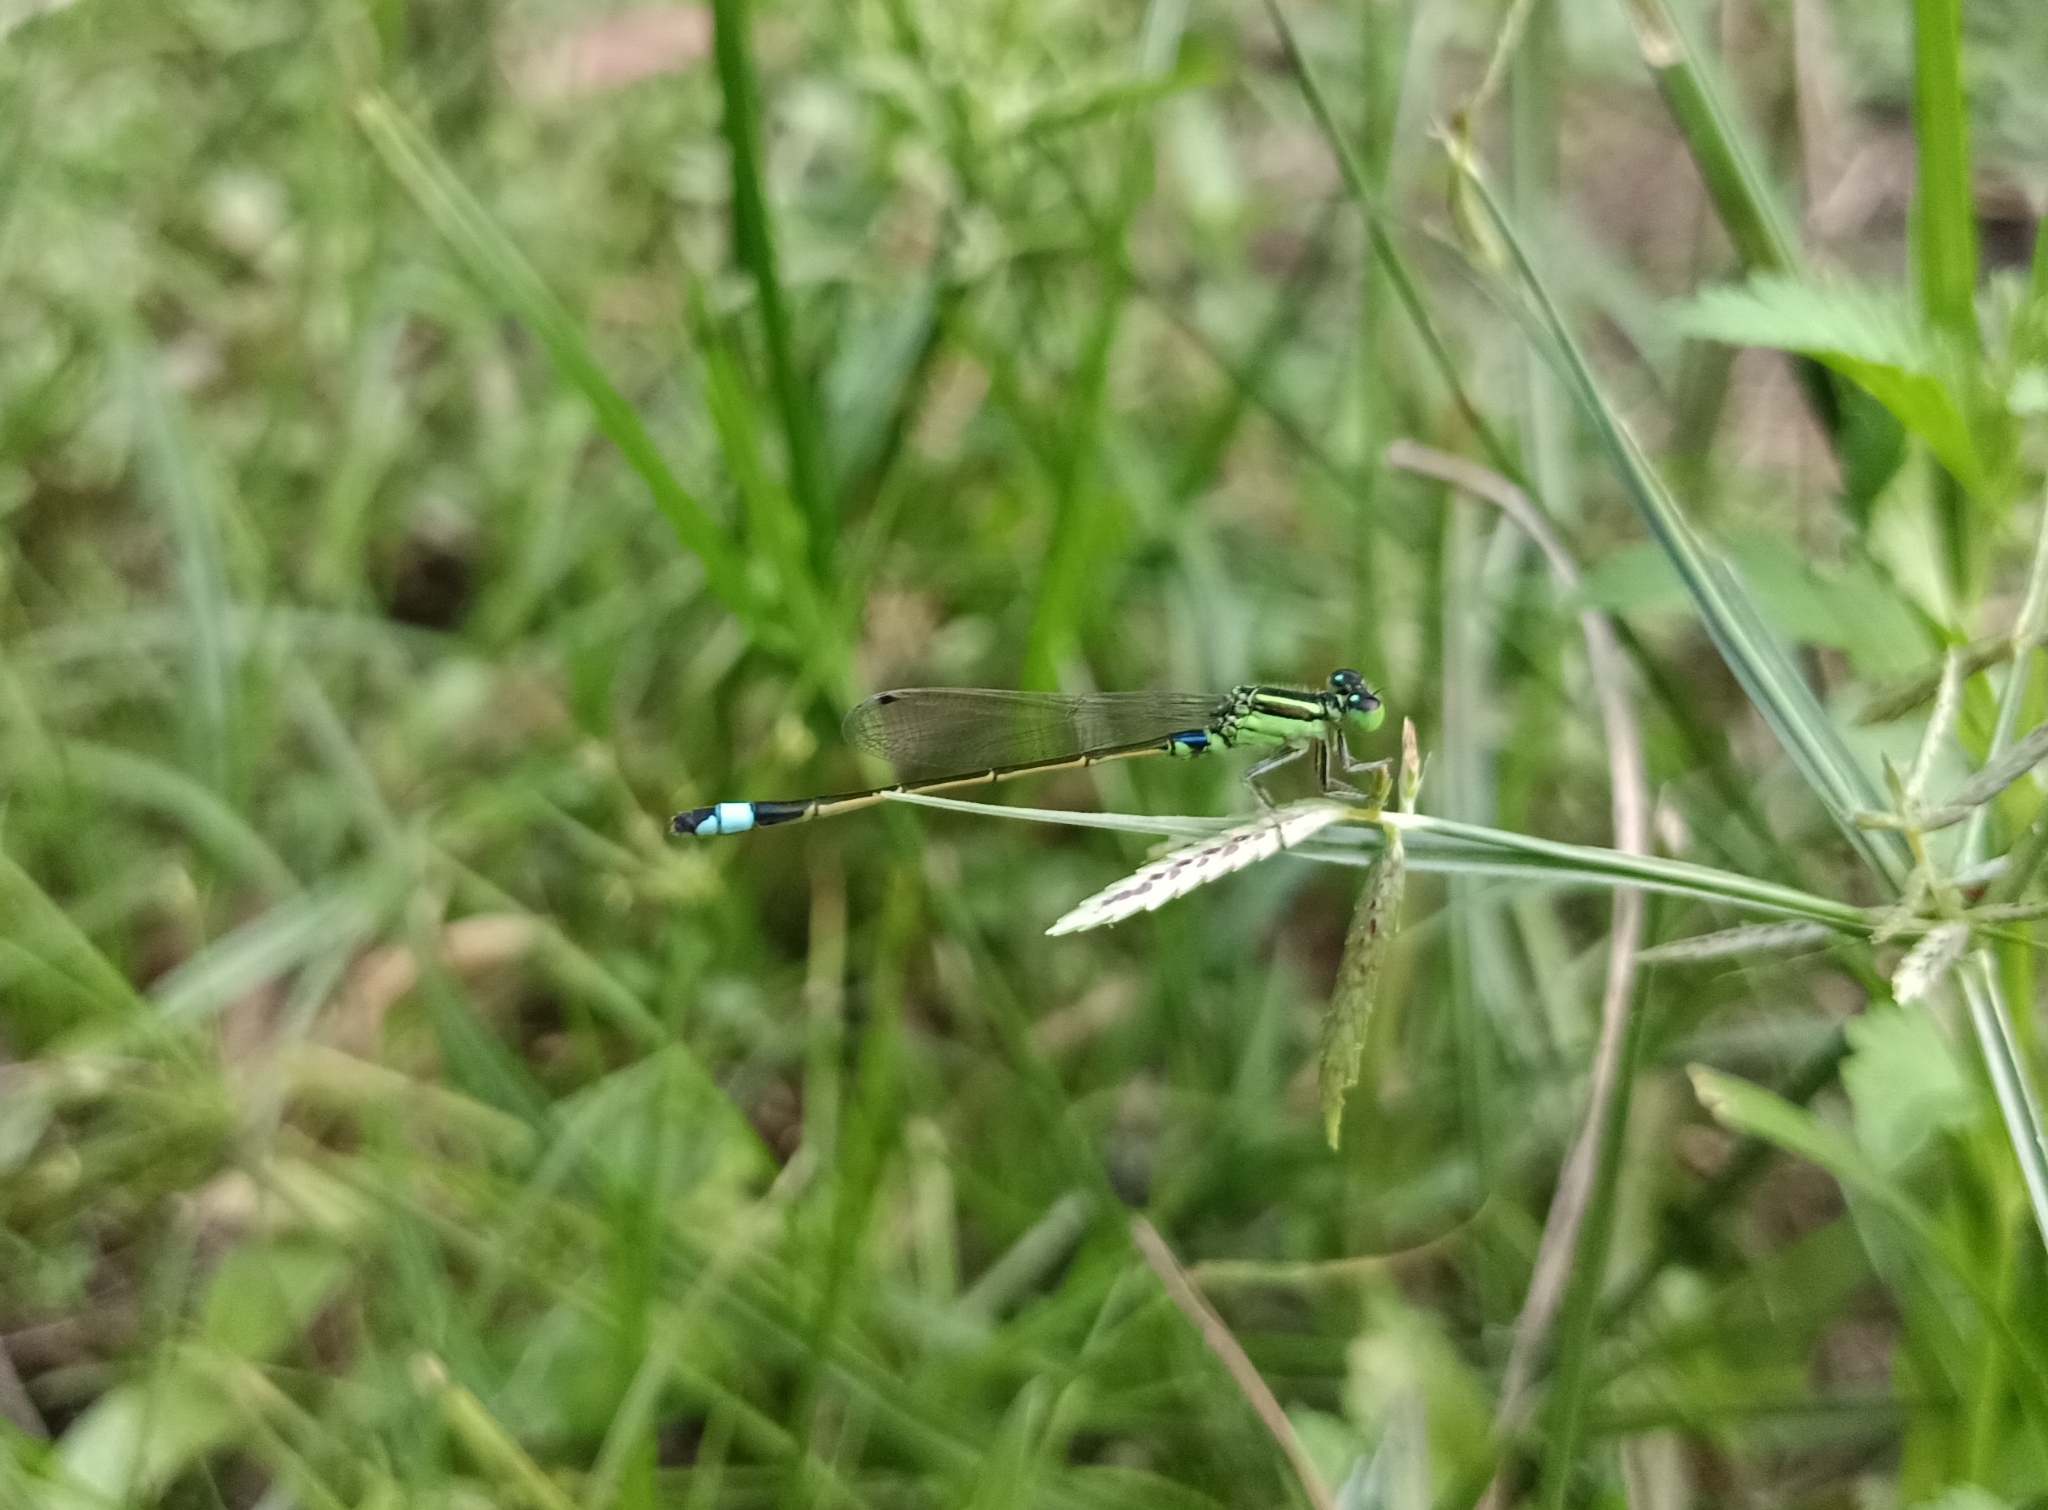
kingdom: Animalia
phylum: Arthropoda
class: Insecta
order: Odonata
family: Coenagrionidae
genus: Ischnura
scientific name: Ischnura senegalensis
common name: Tropical bluetail
